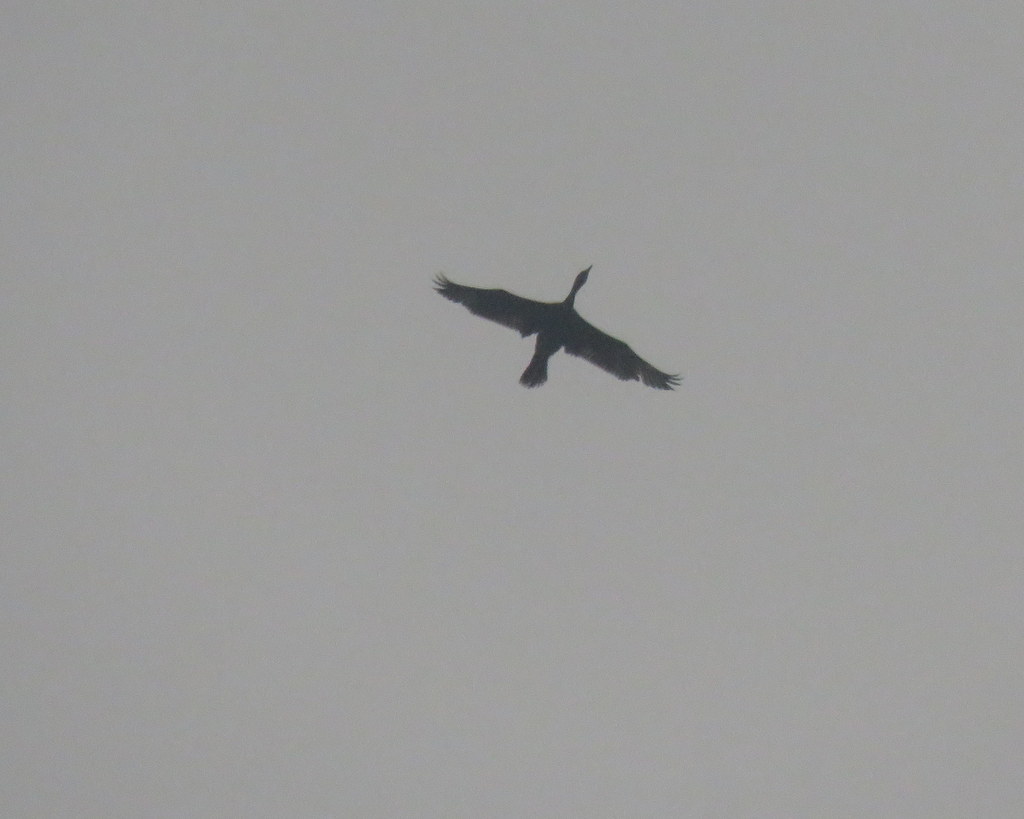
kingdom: Animalia
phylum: Chordata
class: Aves
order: Suliformes
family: Phalacrocoracidae
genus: Phalacrocorax
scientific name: Phalacrocorax brasilianus
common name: Neotropic cormorant
